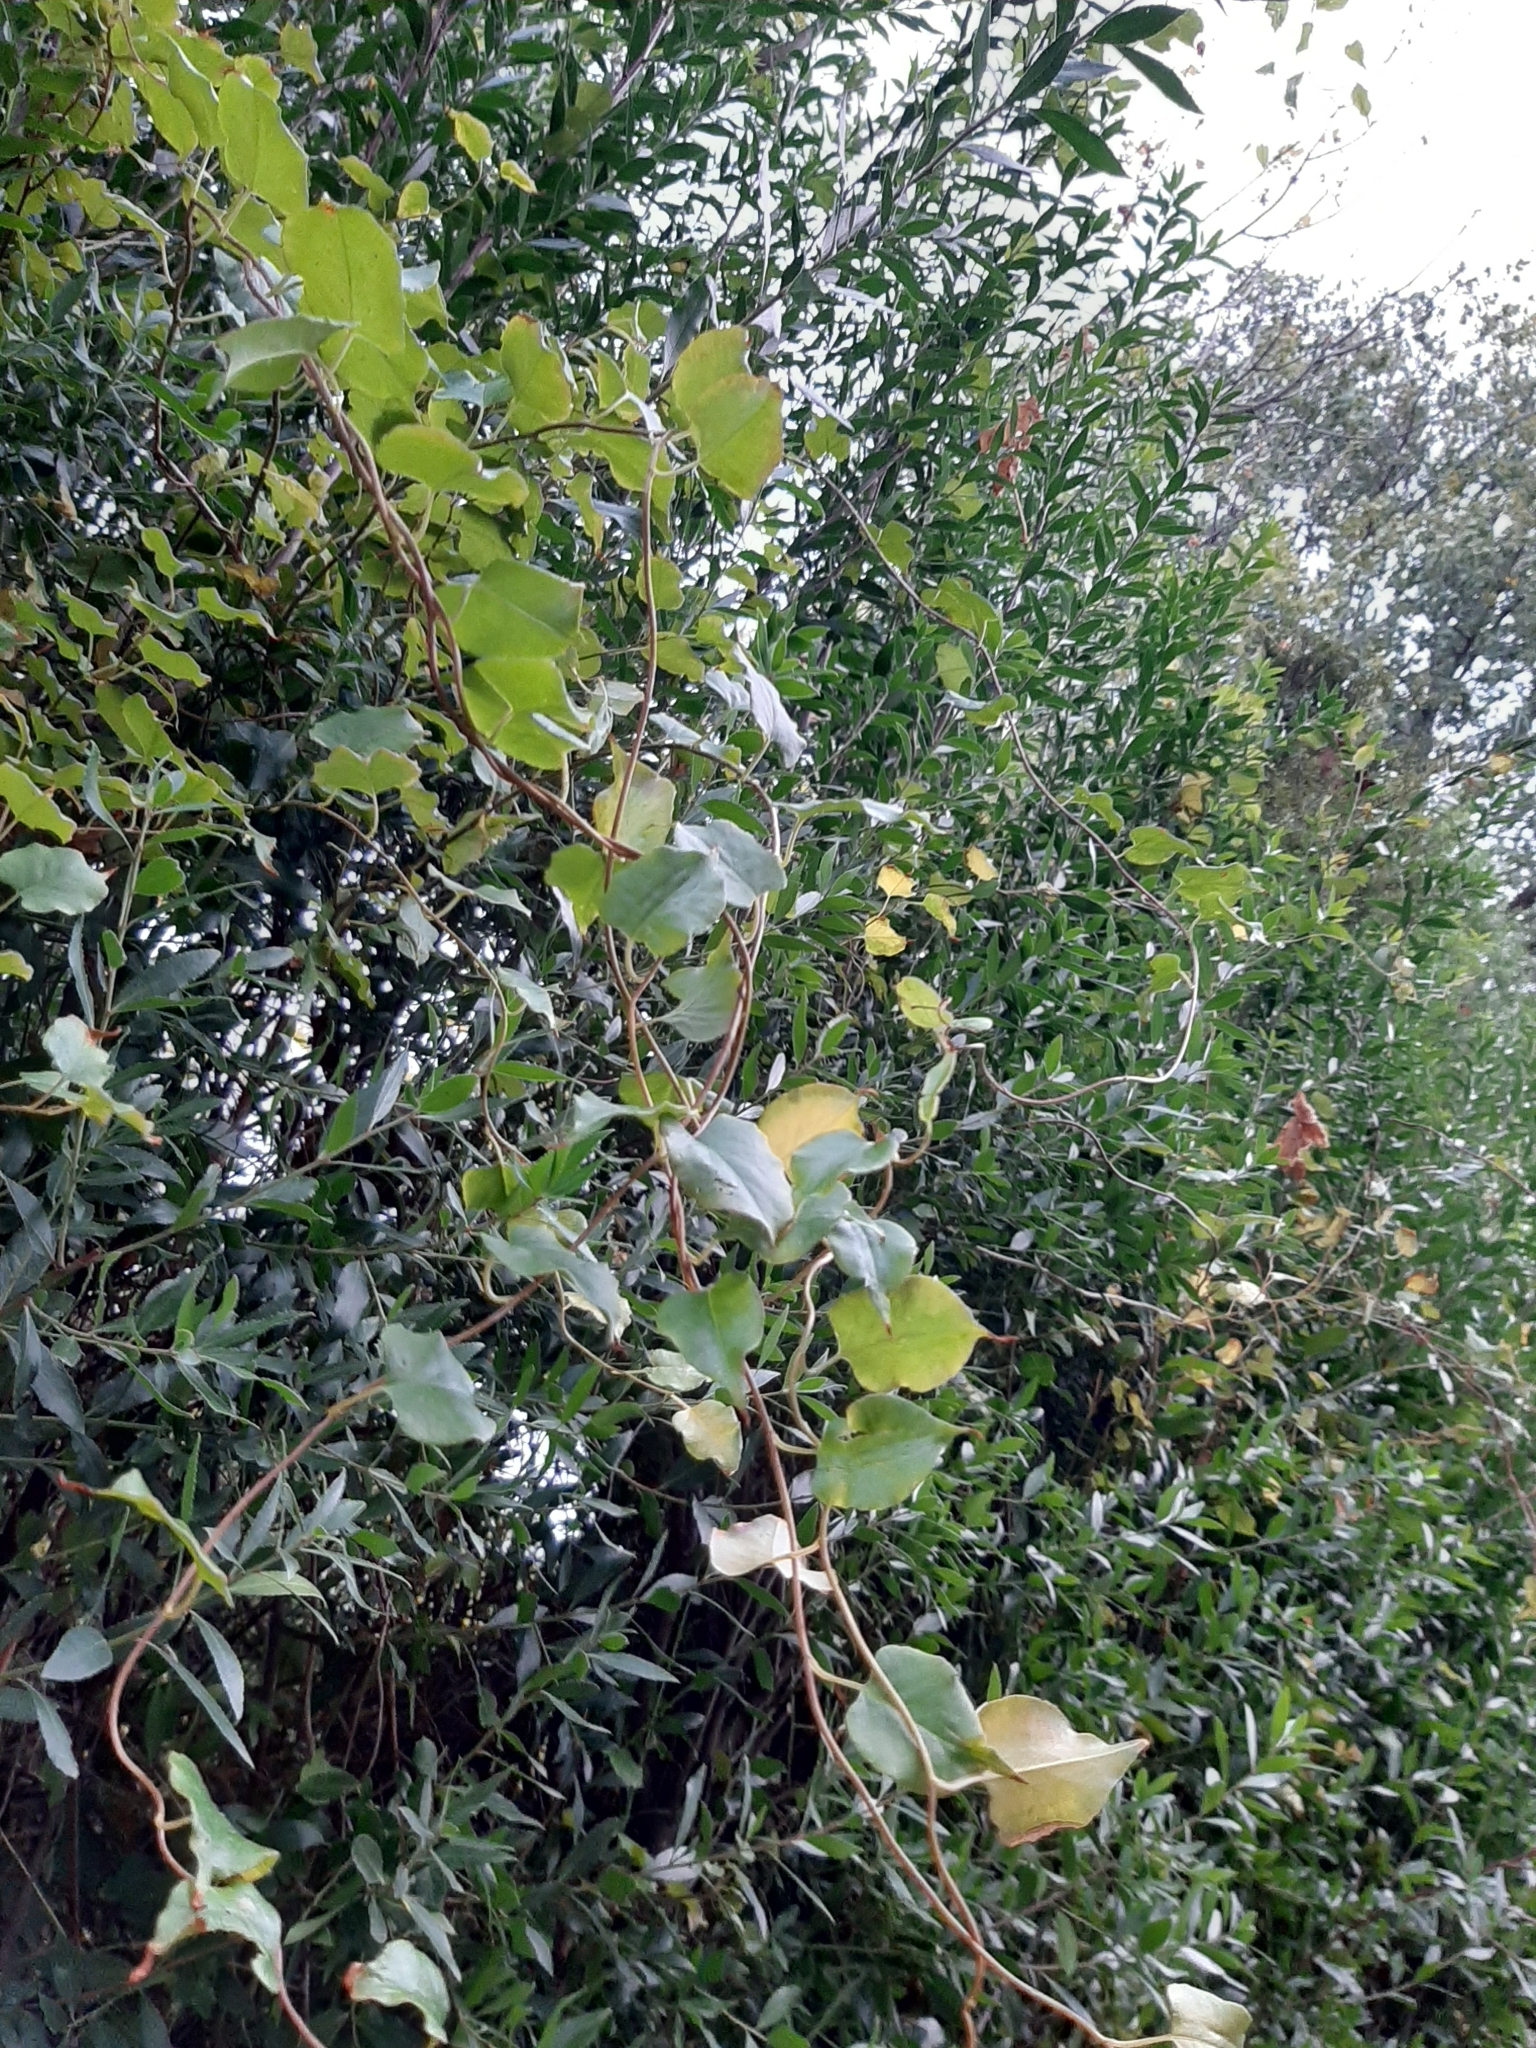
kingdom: Plantae
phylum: Tracheophyta
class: Magnoliopsida
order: Caryophyllales
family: Polygonaceae
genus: Muehlenbeckia
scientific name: Muehlenbeckia australis
